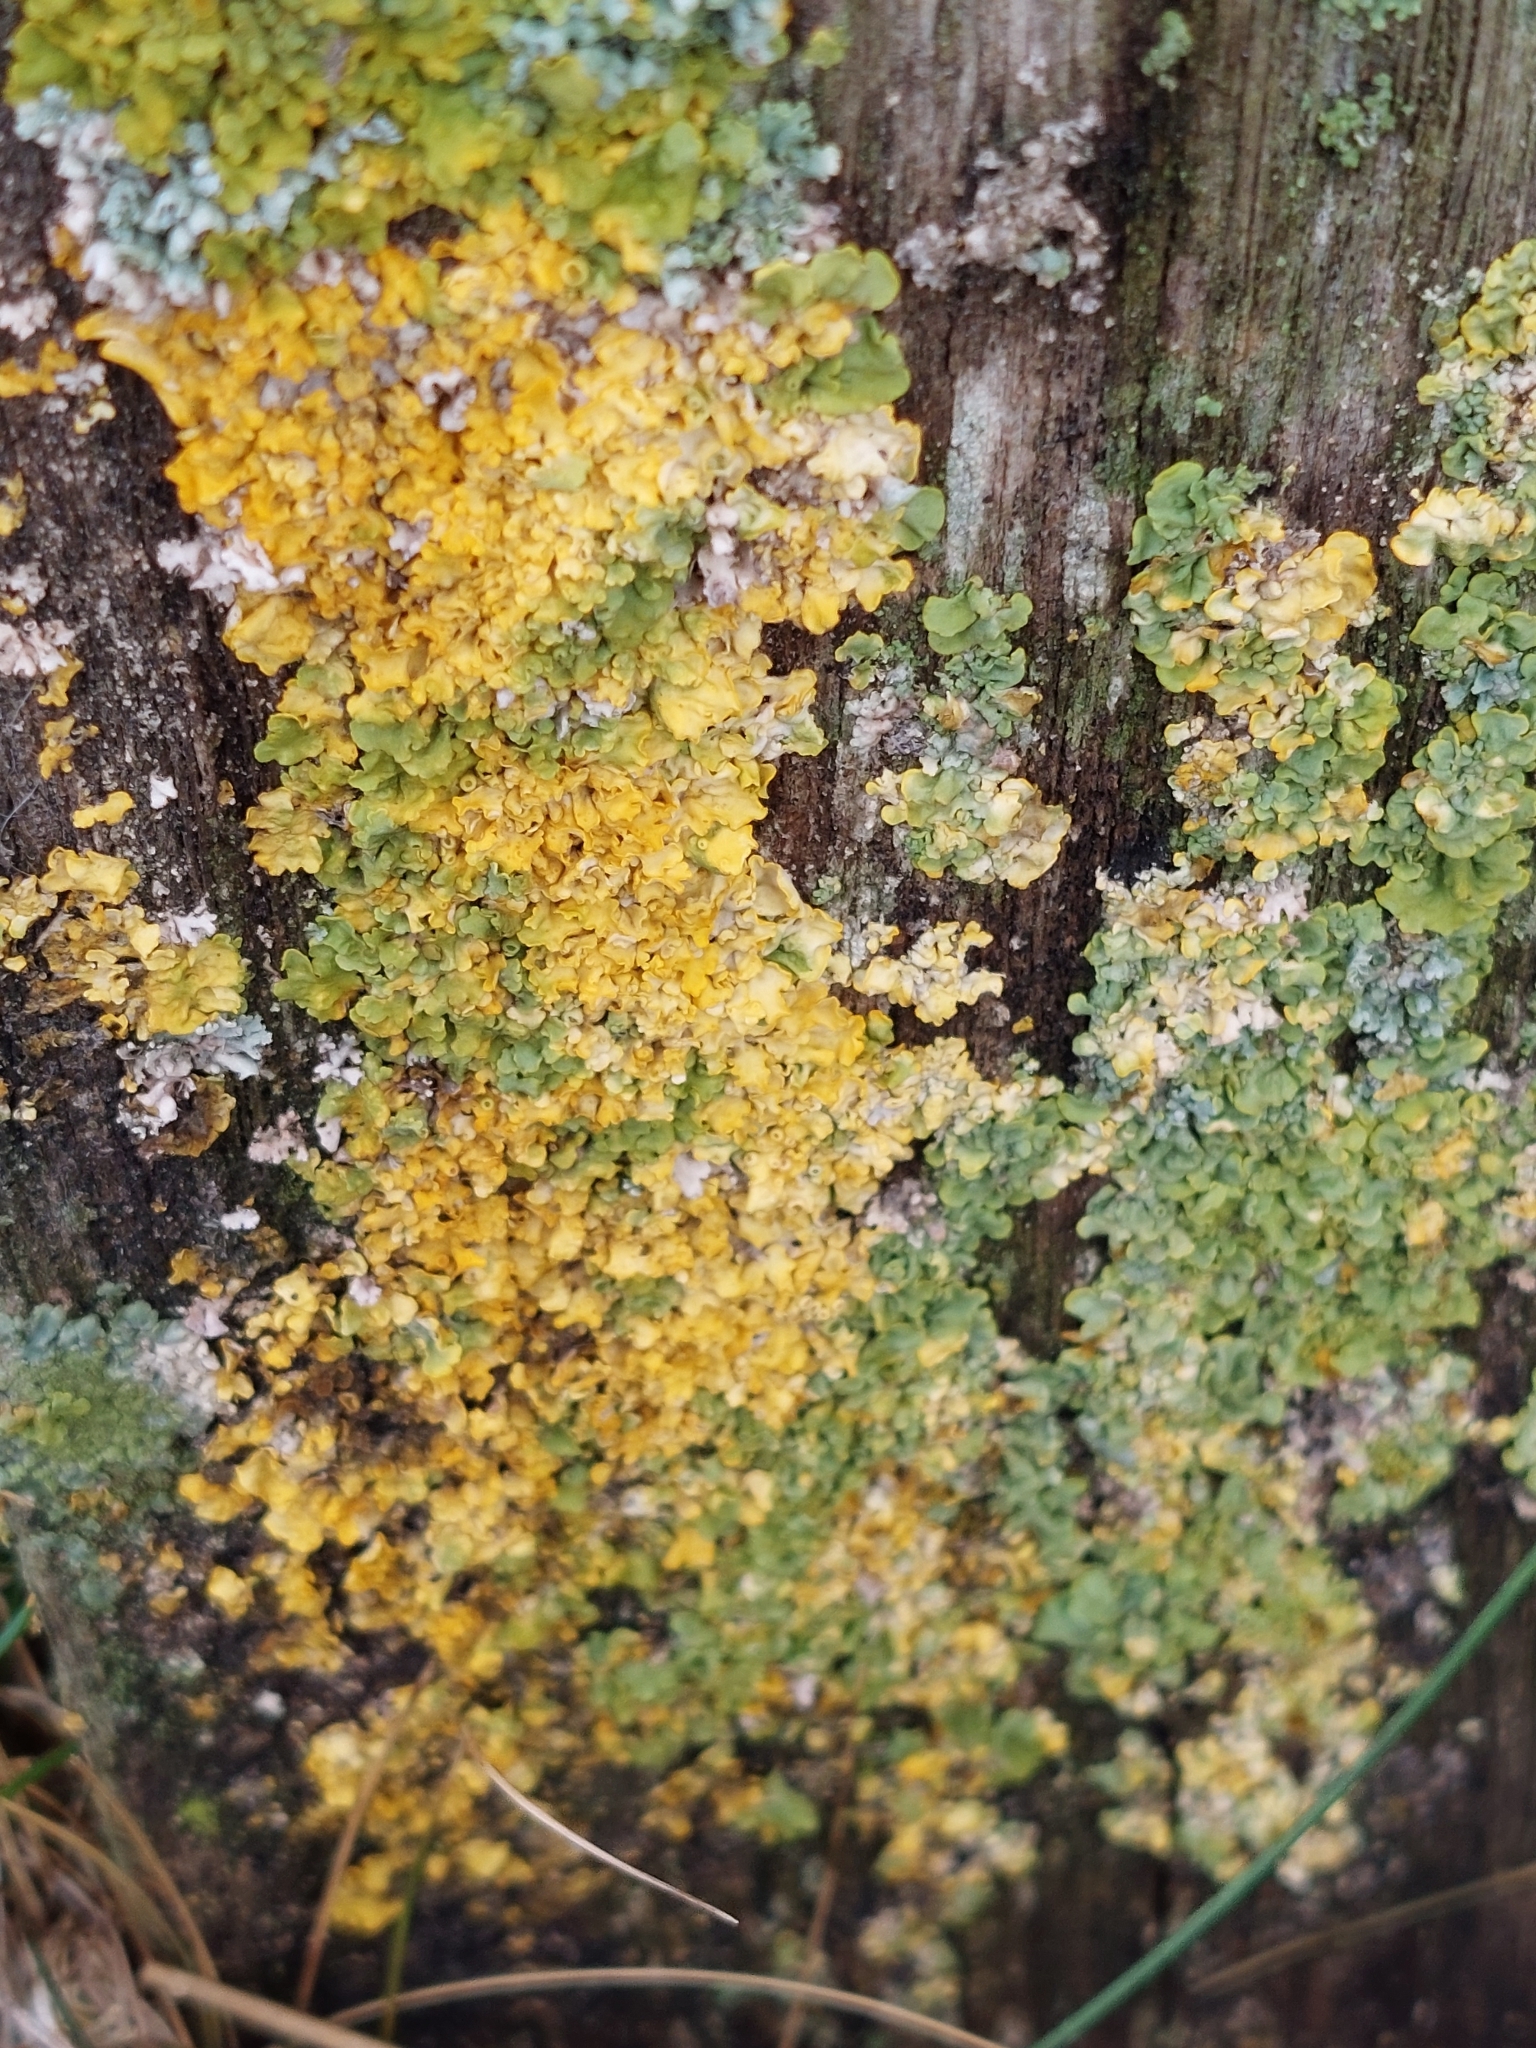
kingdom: Fungi
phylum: Ascomycota
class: Lecanoromycetes
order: Teloschistales
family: Teloschistaceae
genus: Xanthoria
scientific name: Xanthoria parietina
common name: Common orange lichen
